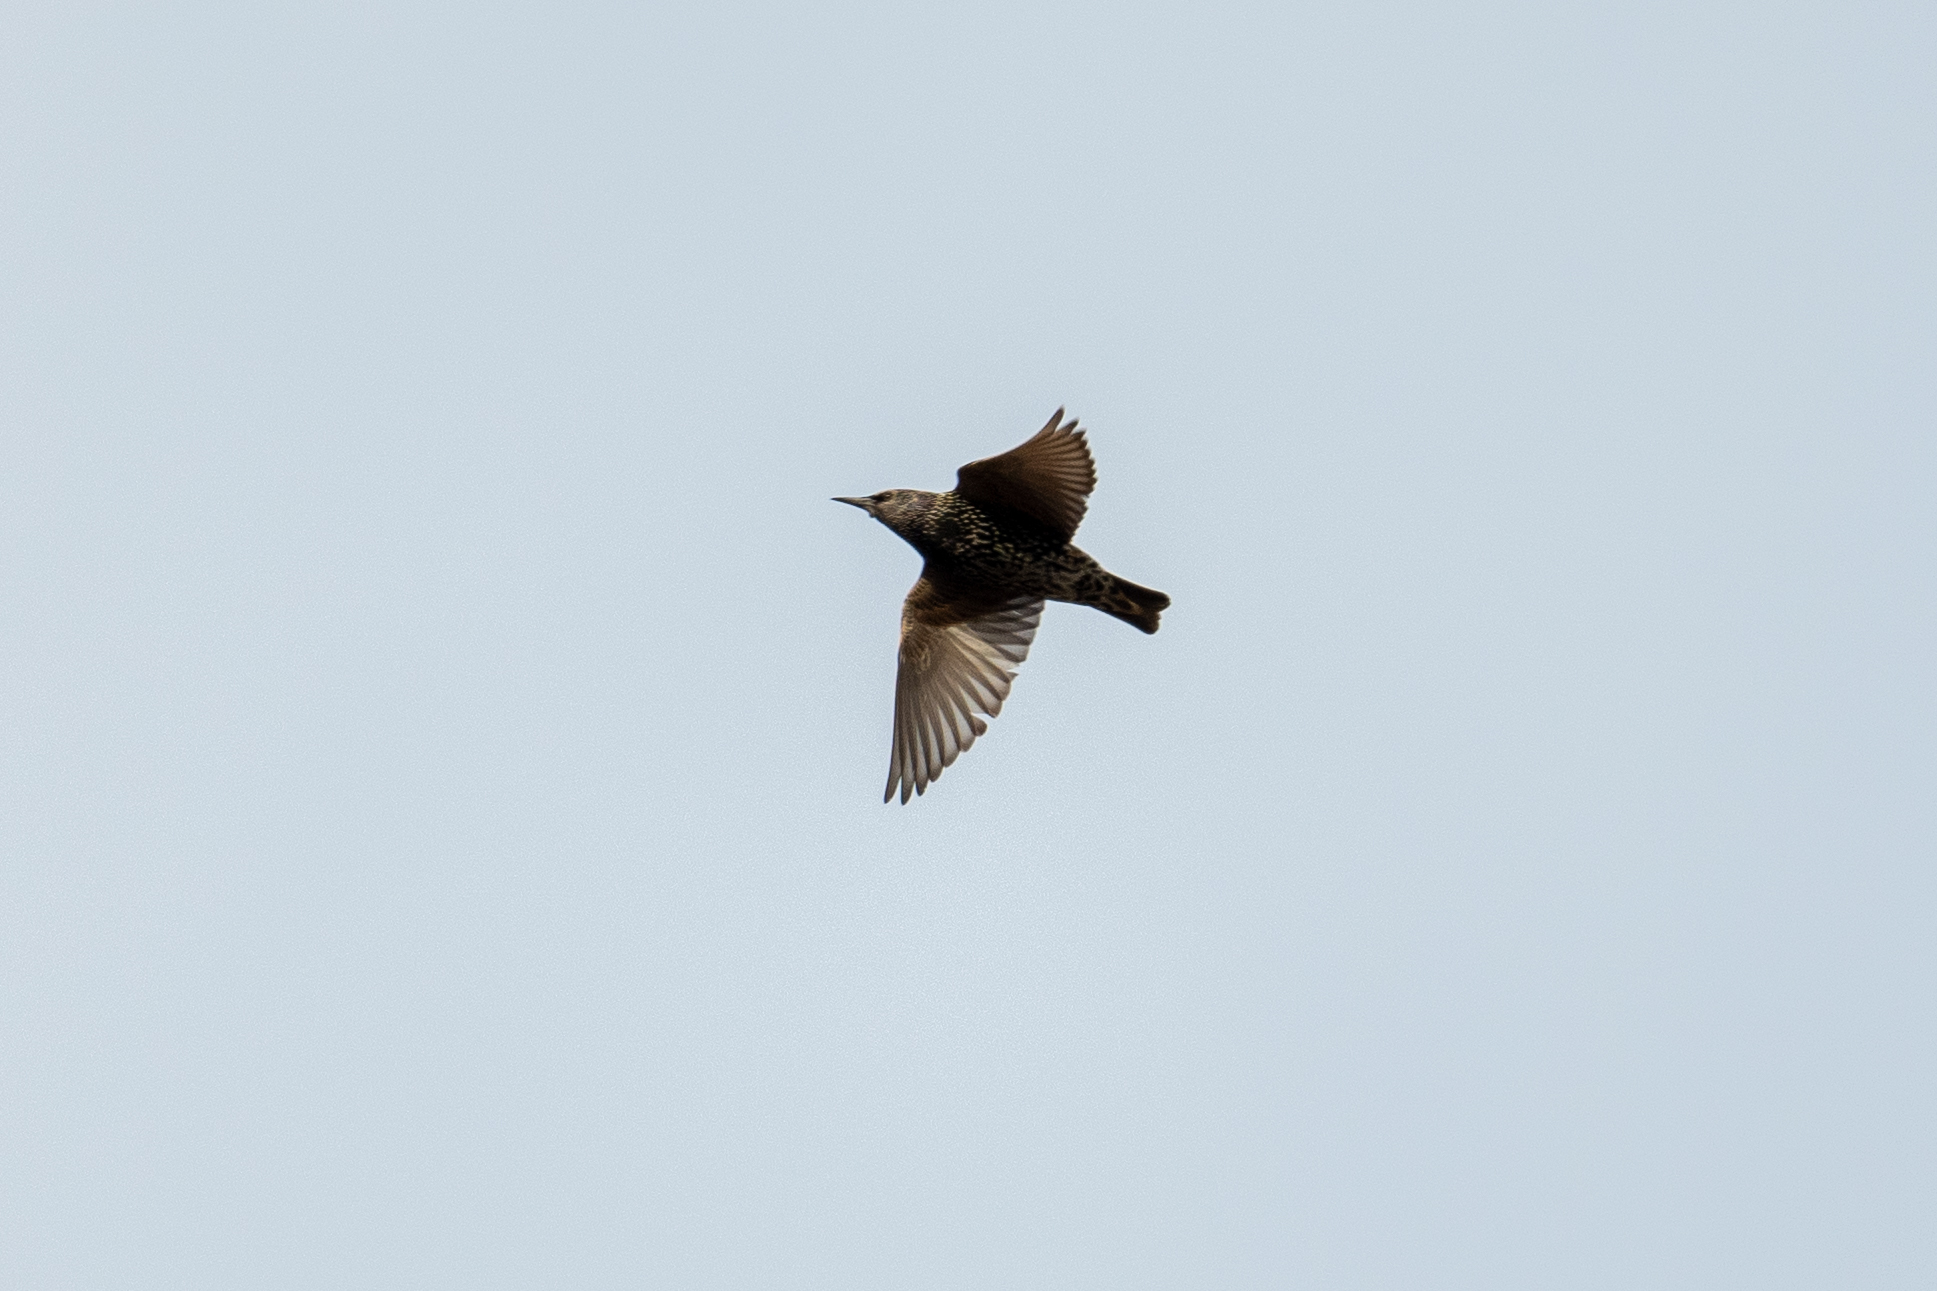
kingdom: Animalia
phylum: Chordata
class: Aves
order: Passeriformes
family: Sturnidae
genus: Sturnus
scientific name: Sturnus vulgaris
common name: Common starling
